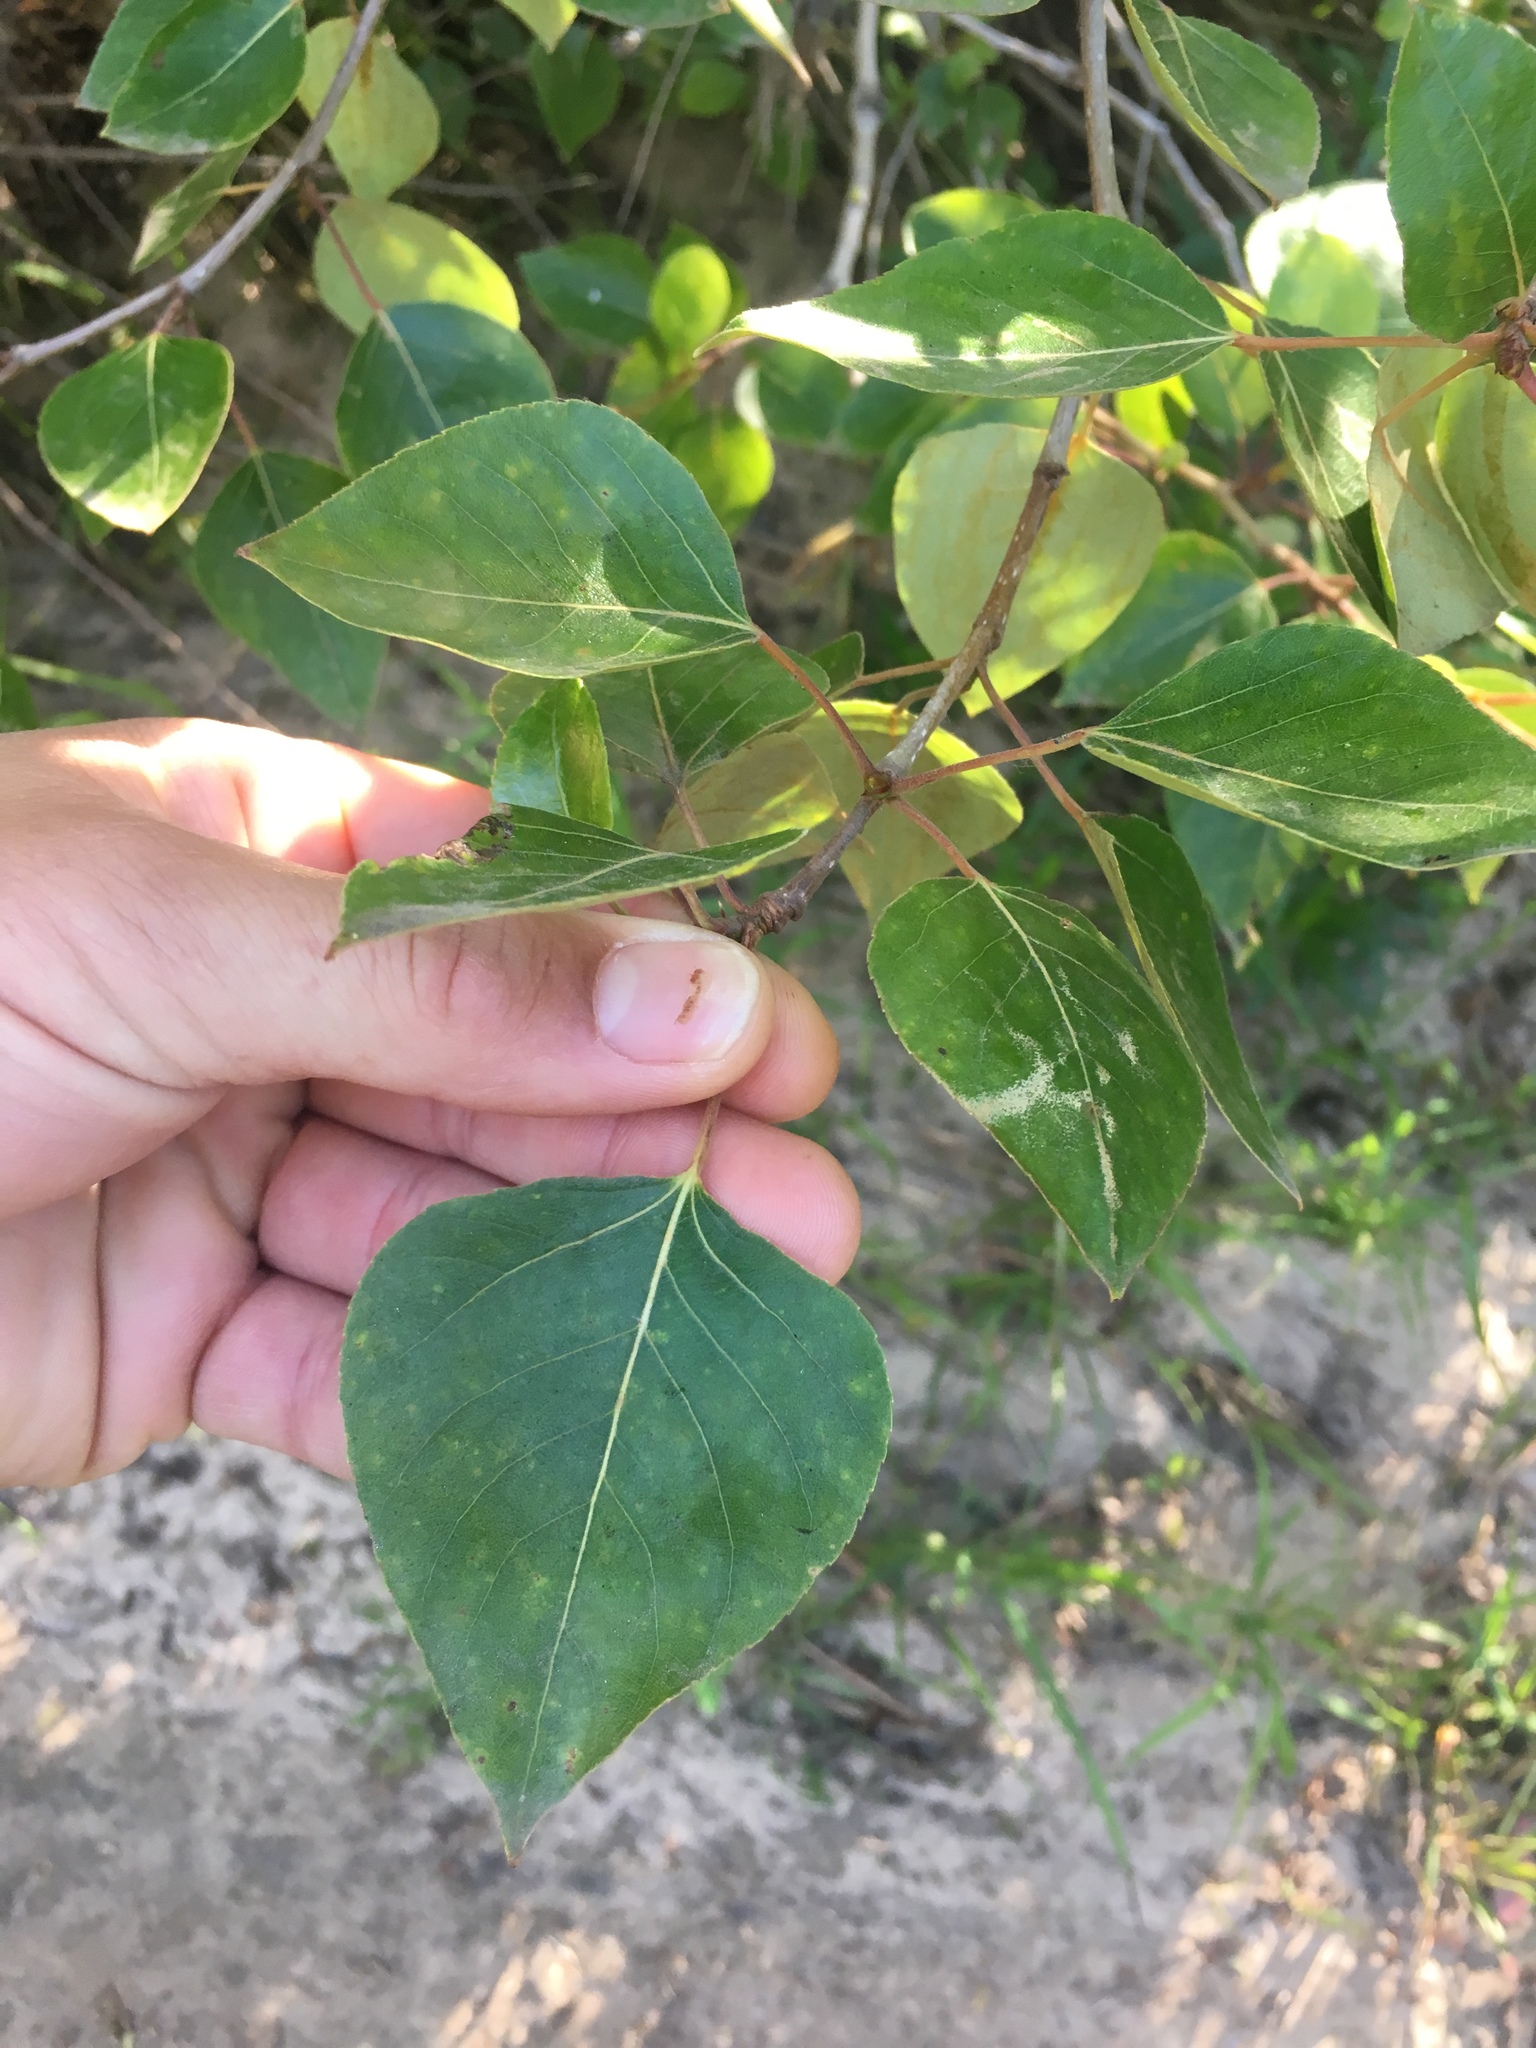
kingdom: Plantae
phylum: Tracheophyta
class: Magnoliopsida
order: Malpighiales
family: Salicaceae
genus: Populus
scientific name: Populus trichocarpa
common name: Black cottonwood
